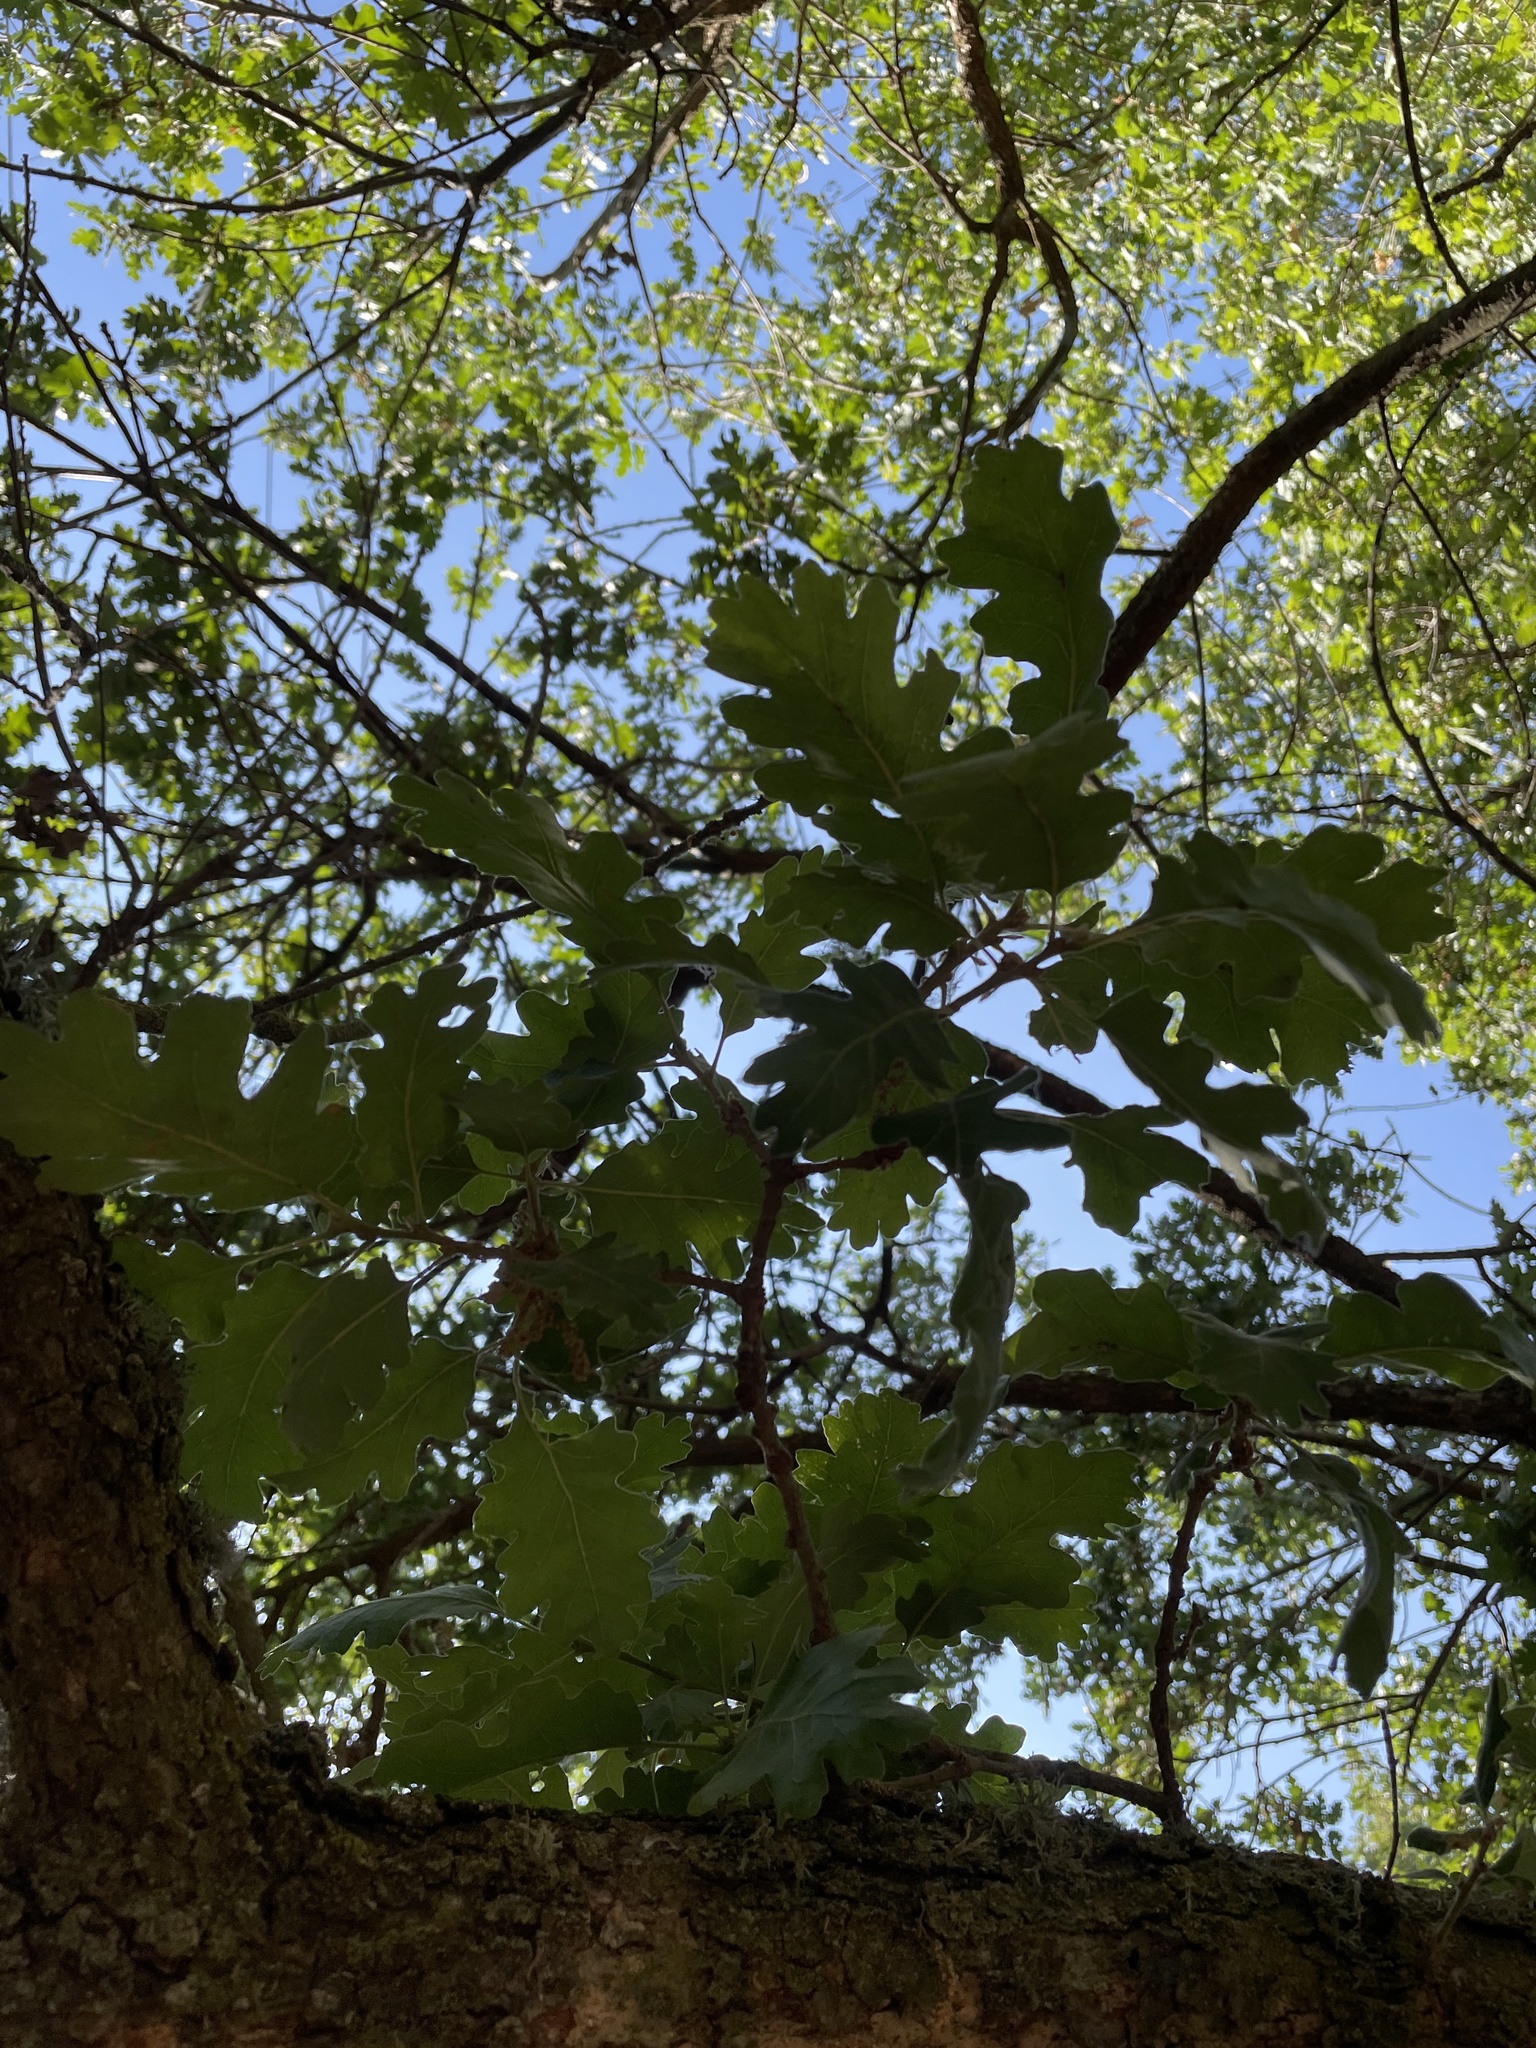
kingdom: Plantae
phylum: Tracheophyta
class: Magnoliopsida
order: Fagales
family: Fagaceae
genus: Quercus
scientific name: Quercus lobata
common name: Valley oak
